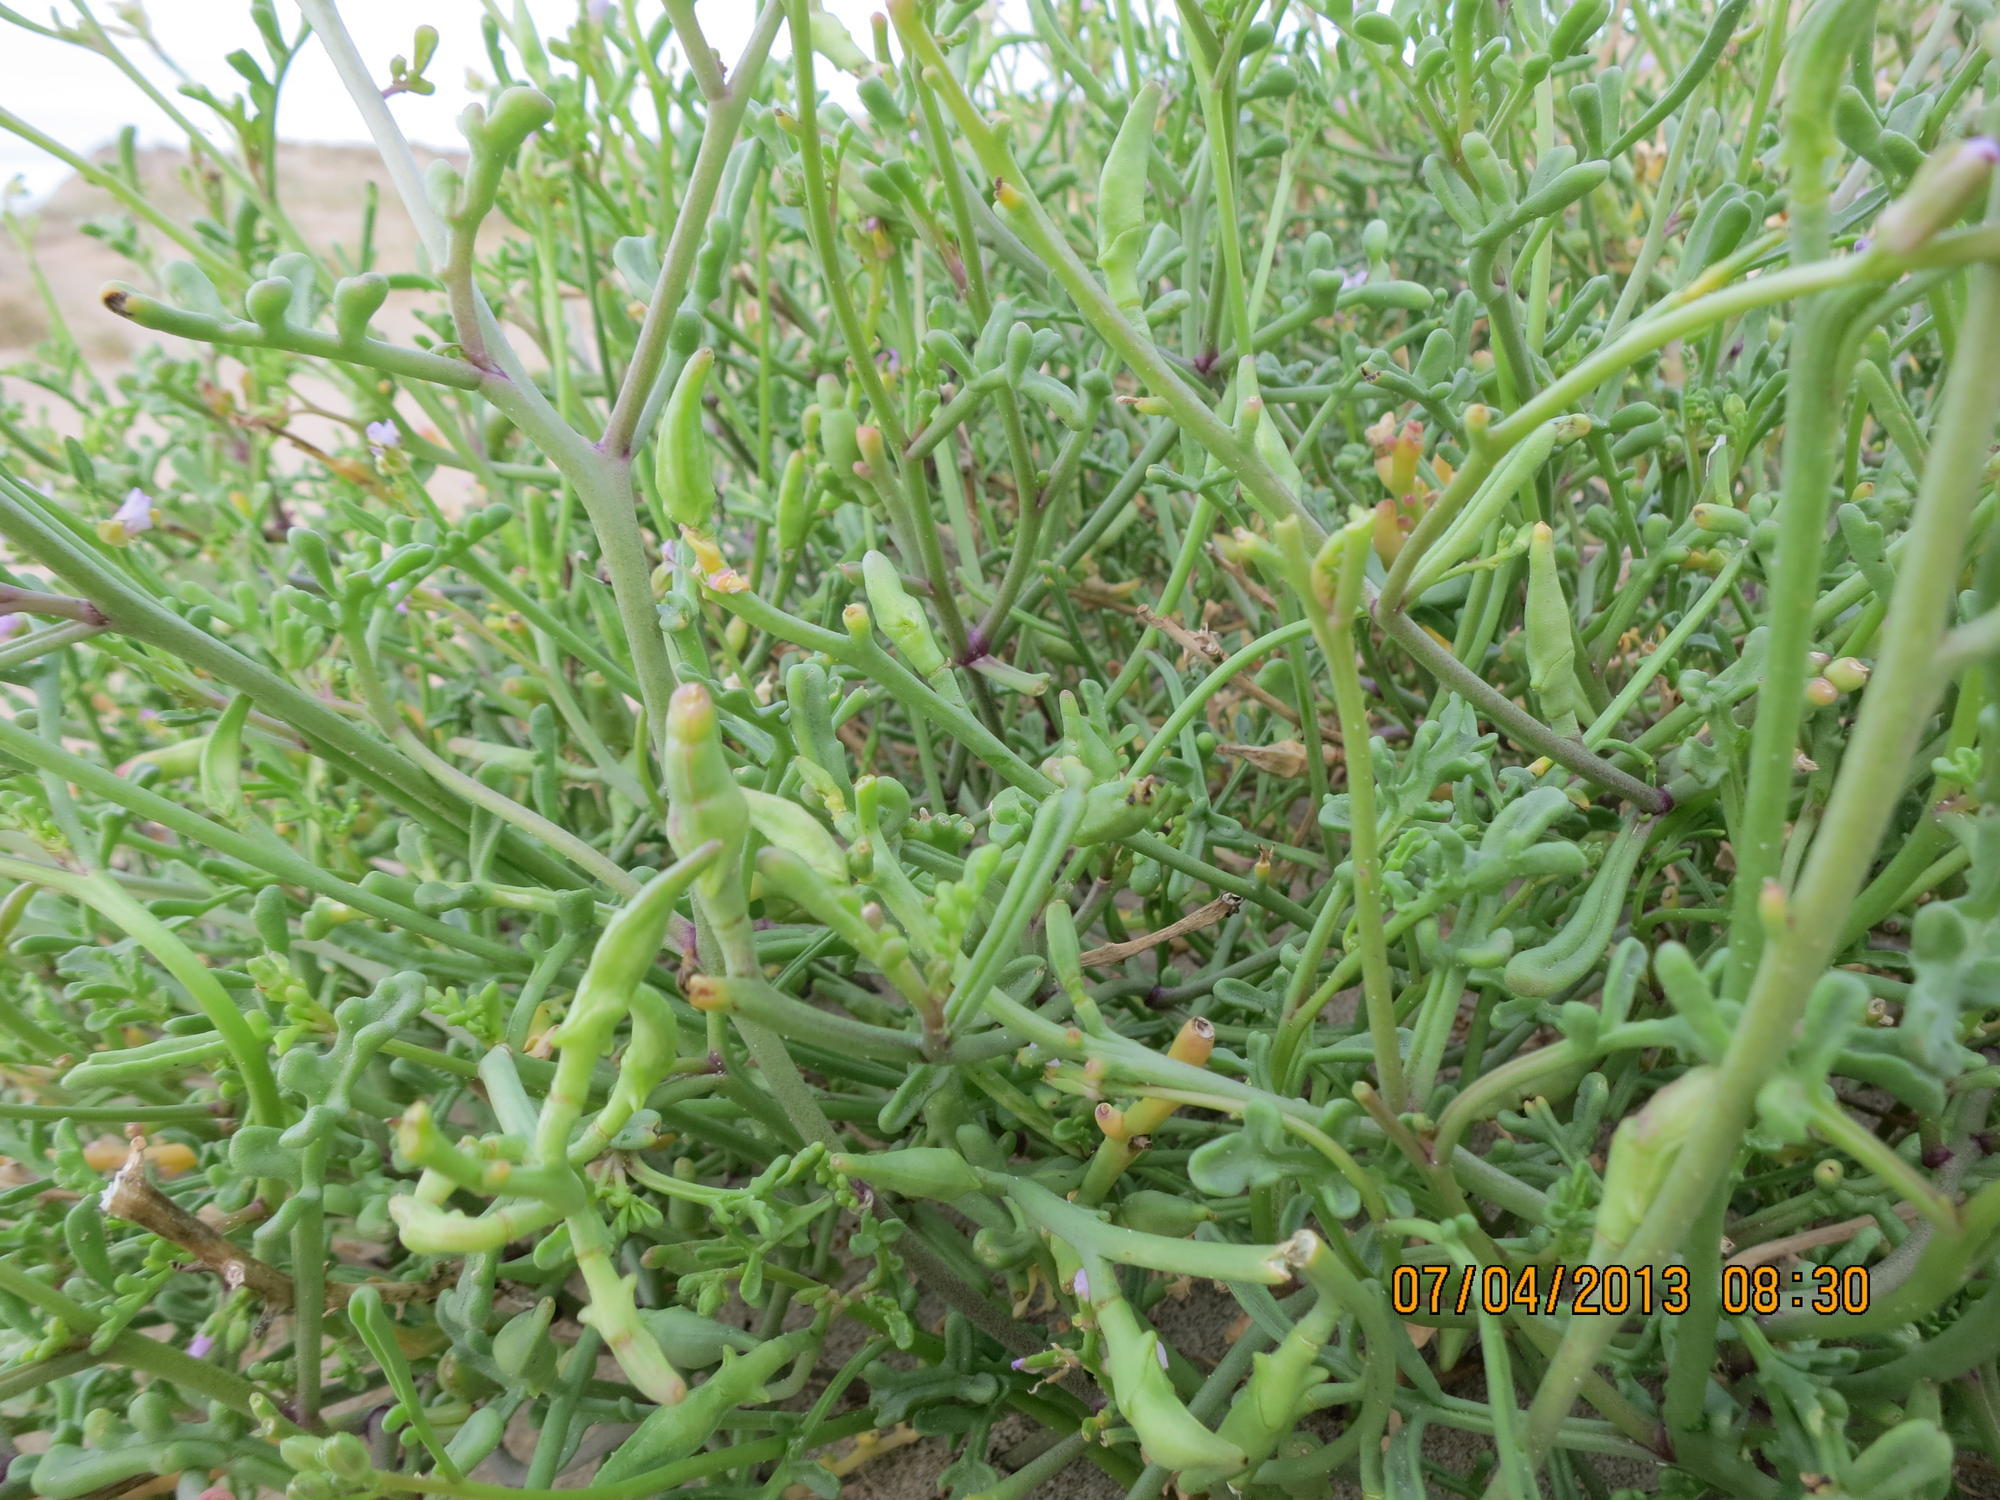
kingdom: Plantae
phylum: Tracheophyta
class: Magnoliopsida
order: Brassicales
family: Brassicaceae
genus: Cakile
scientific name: Cakile maritima
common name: Sea rocket
